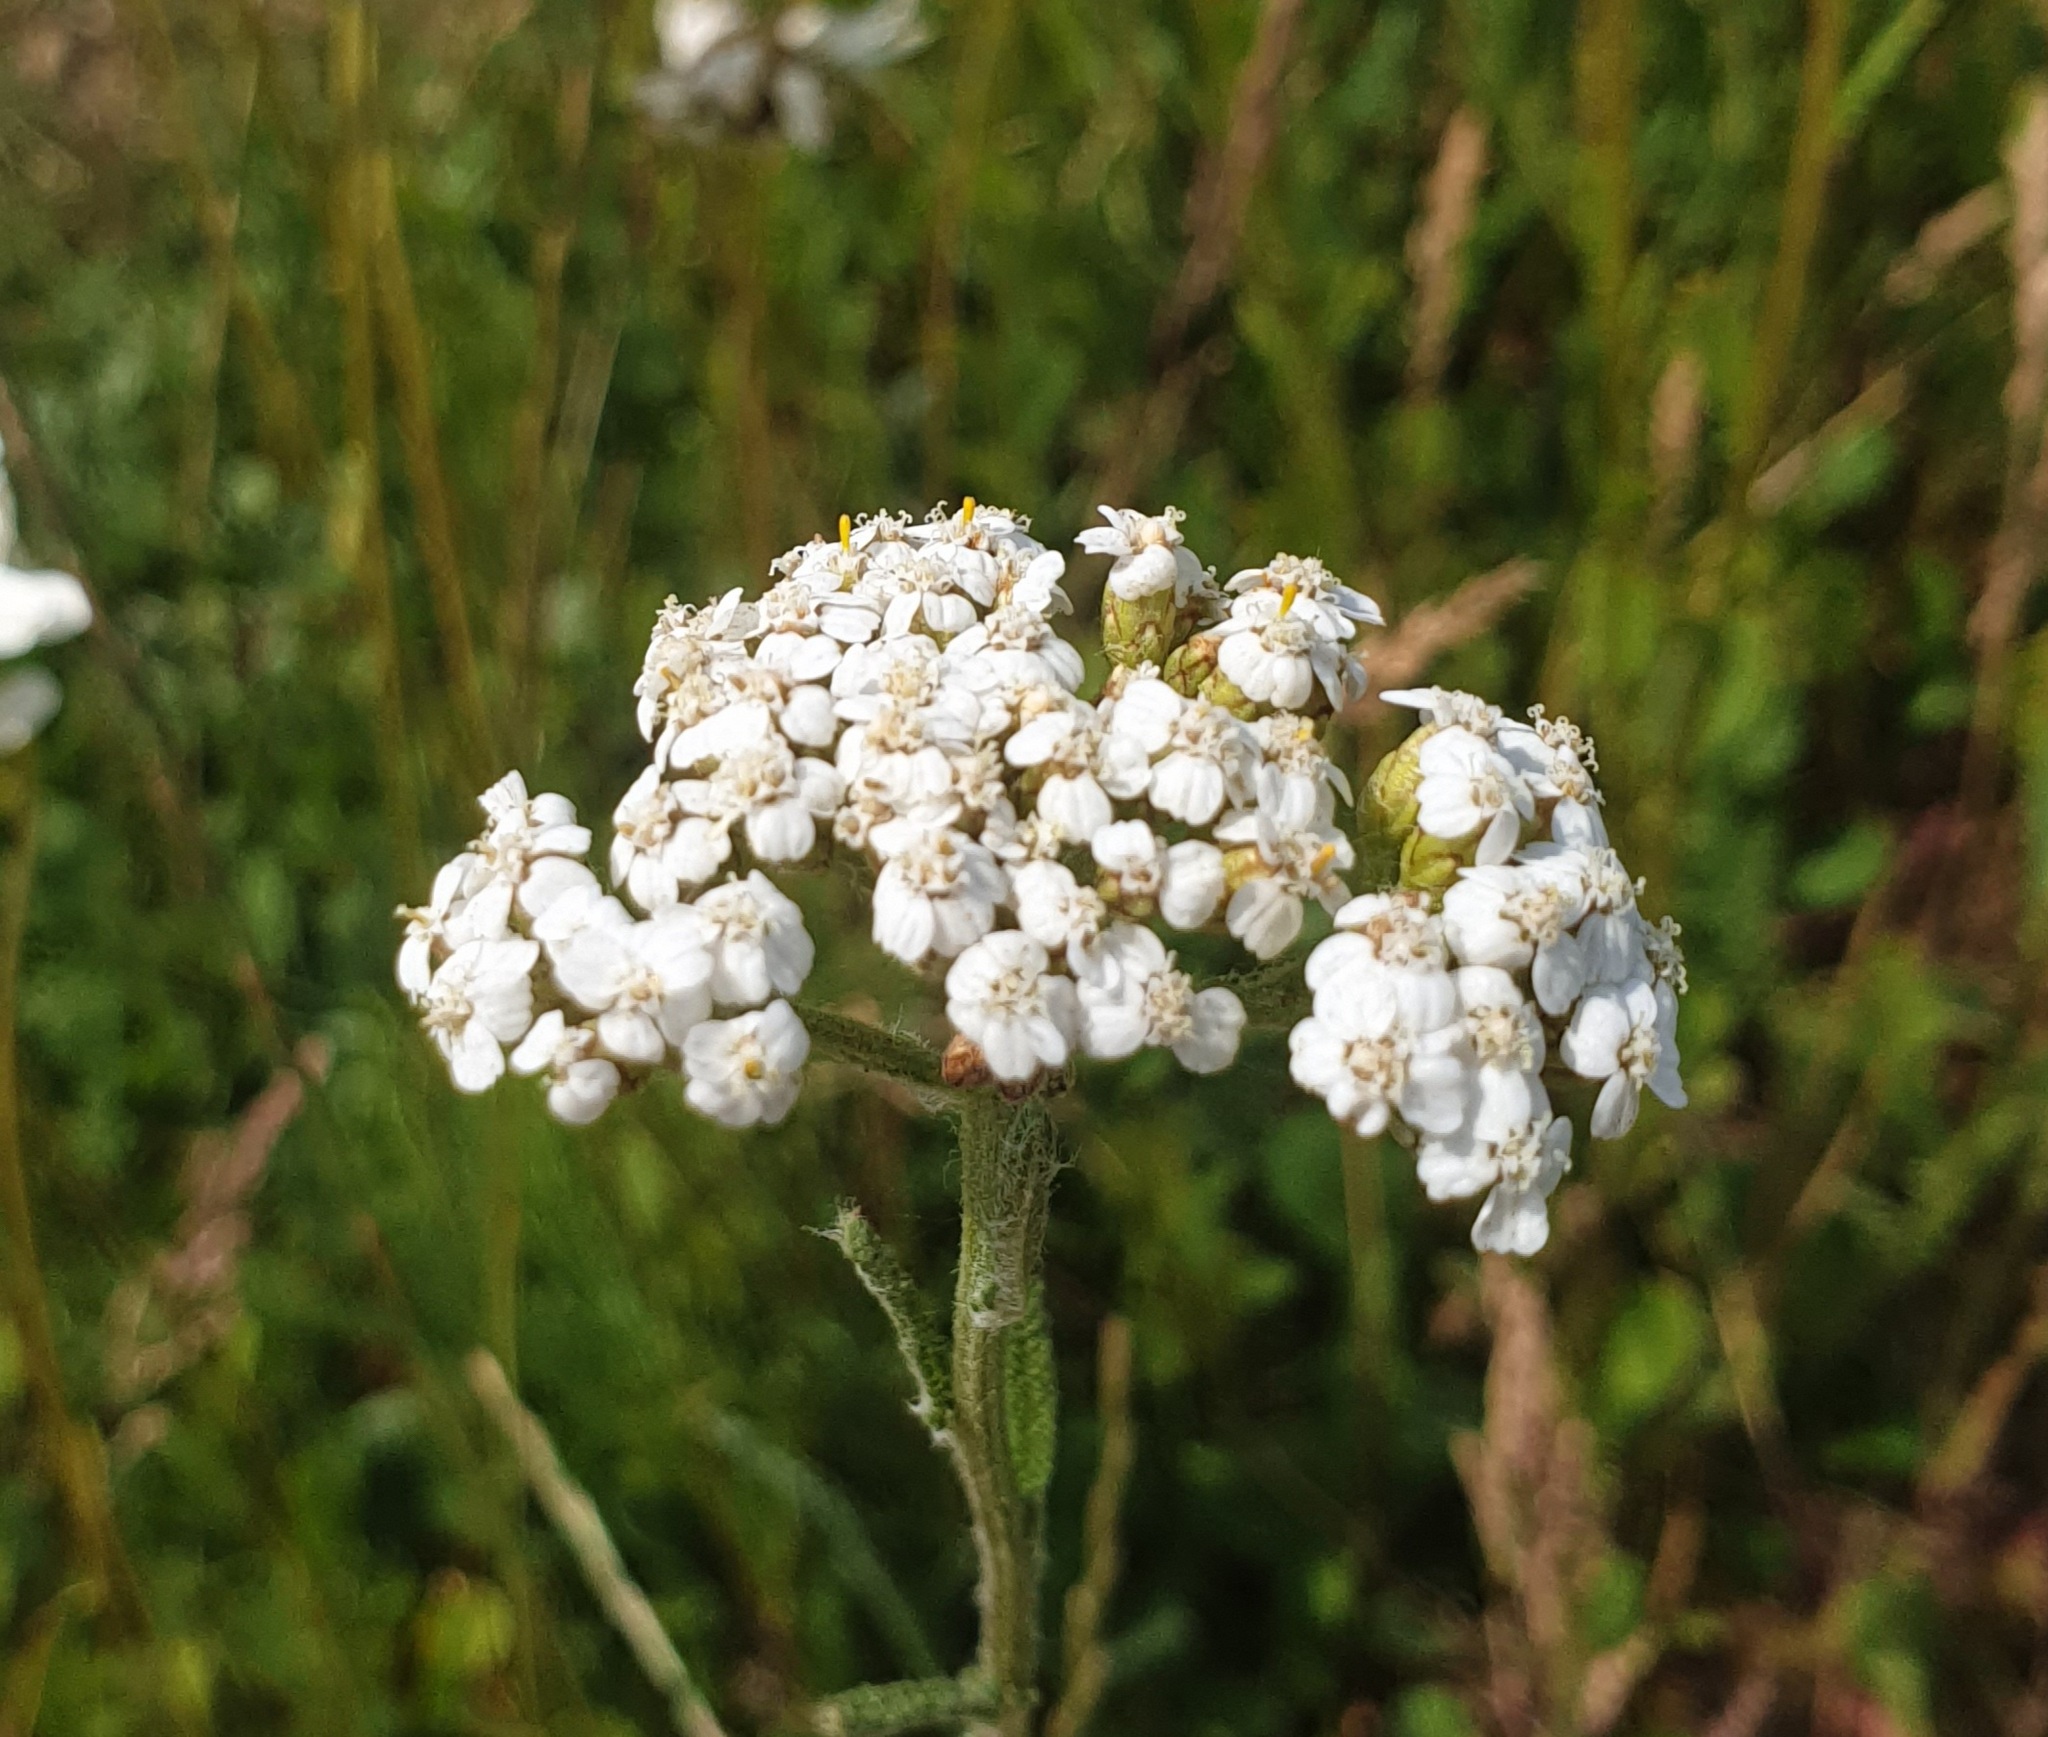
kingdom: Plantae
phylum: Tracheophyta
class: Magnoliopsida
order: Asterales
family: Asteraceae
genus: Achillea
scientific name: Achillea millefolium
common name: Yarrow
